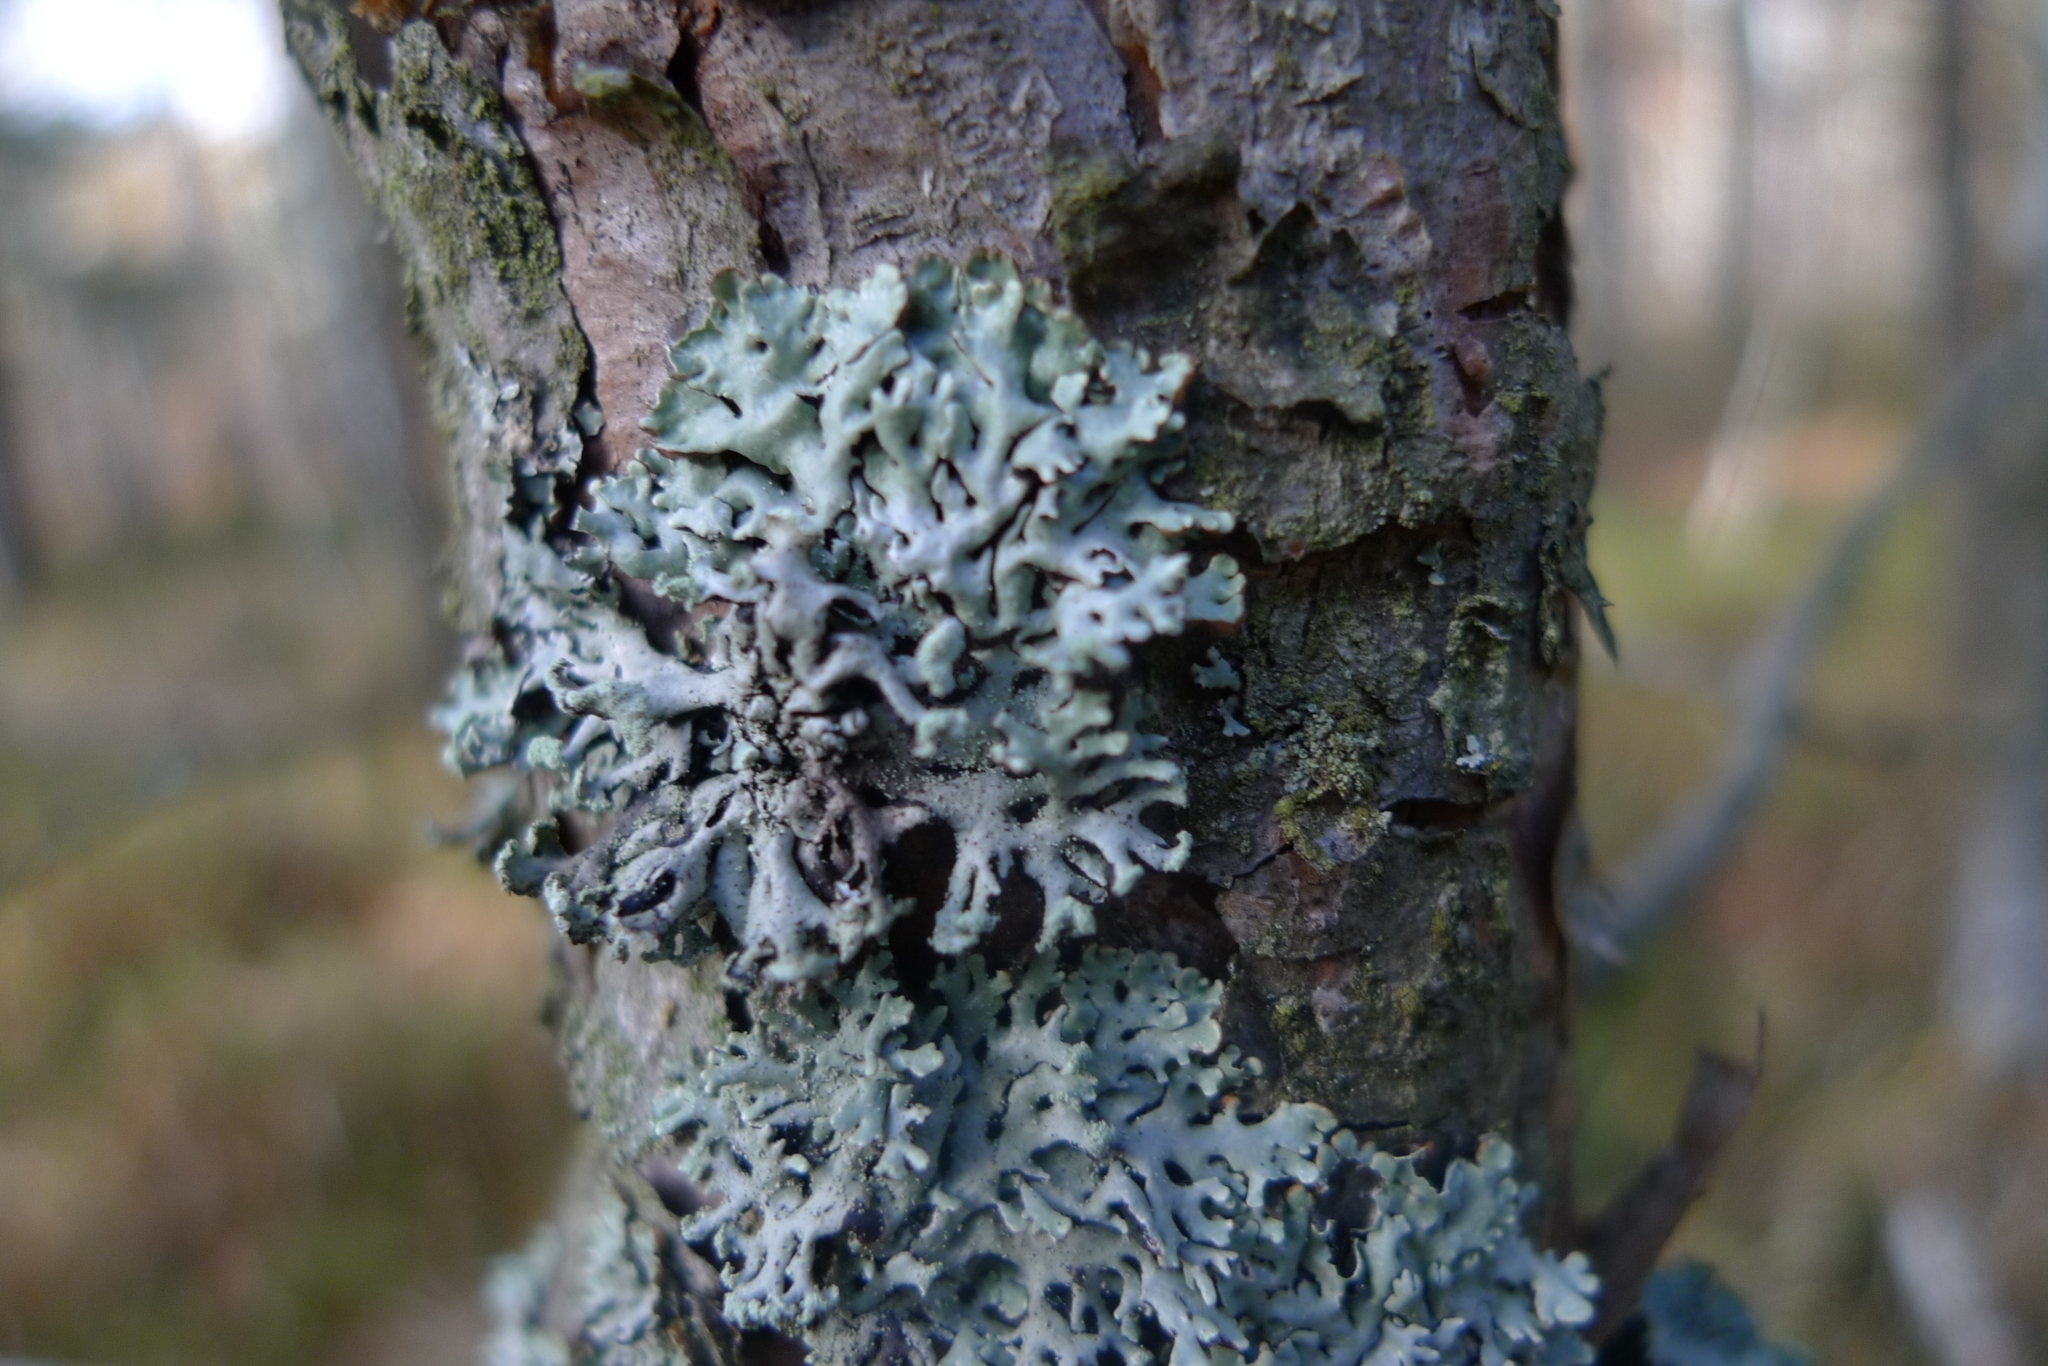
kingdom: Fungi
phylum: Ascomycota
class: Lecanoromycetes
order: Lecanorales
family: Parmeliaceae
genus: Hypogymnia
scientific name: Hypogymnia physodes
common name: Dark crottle
